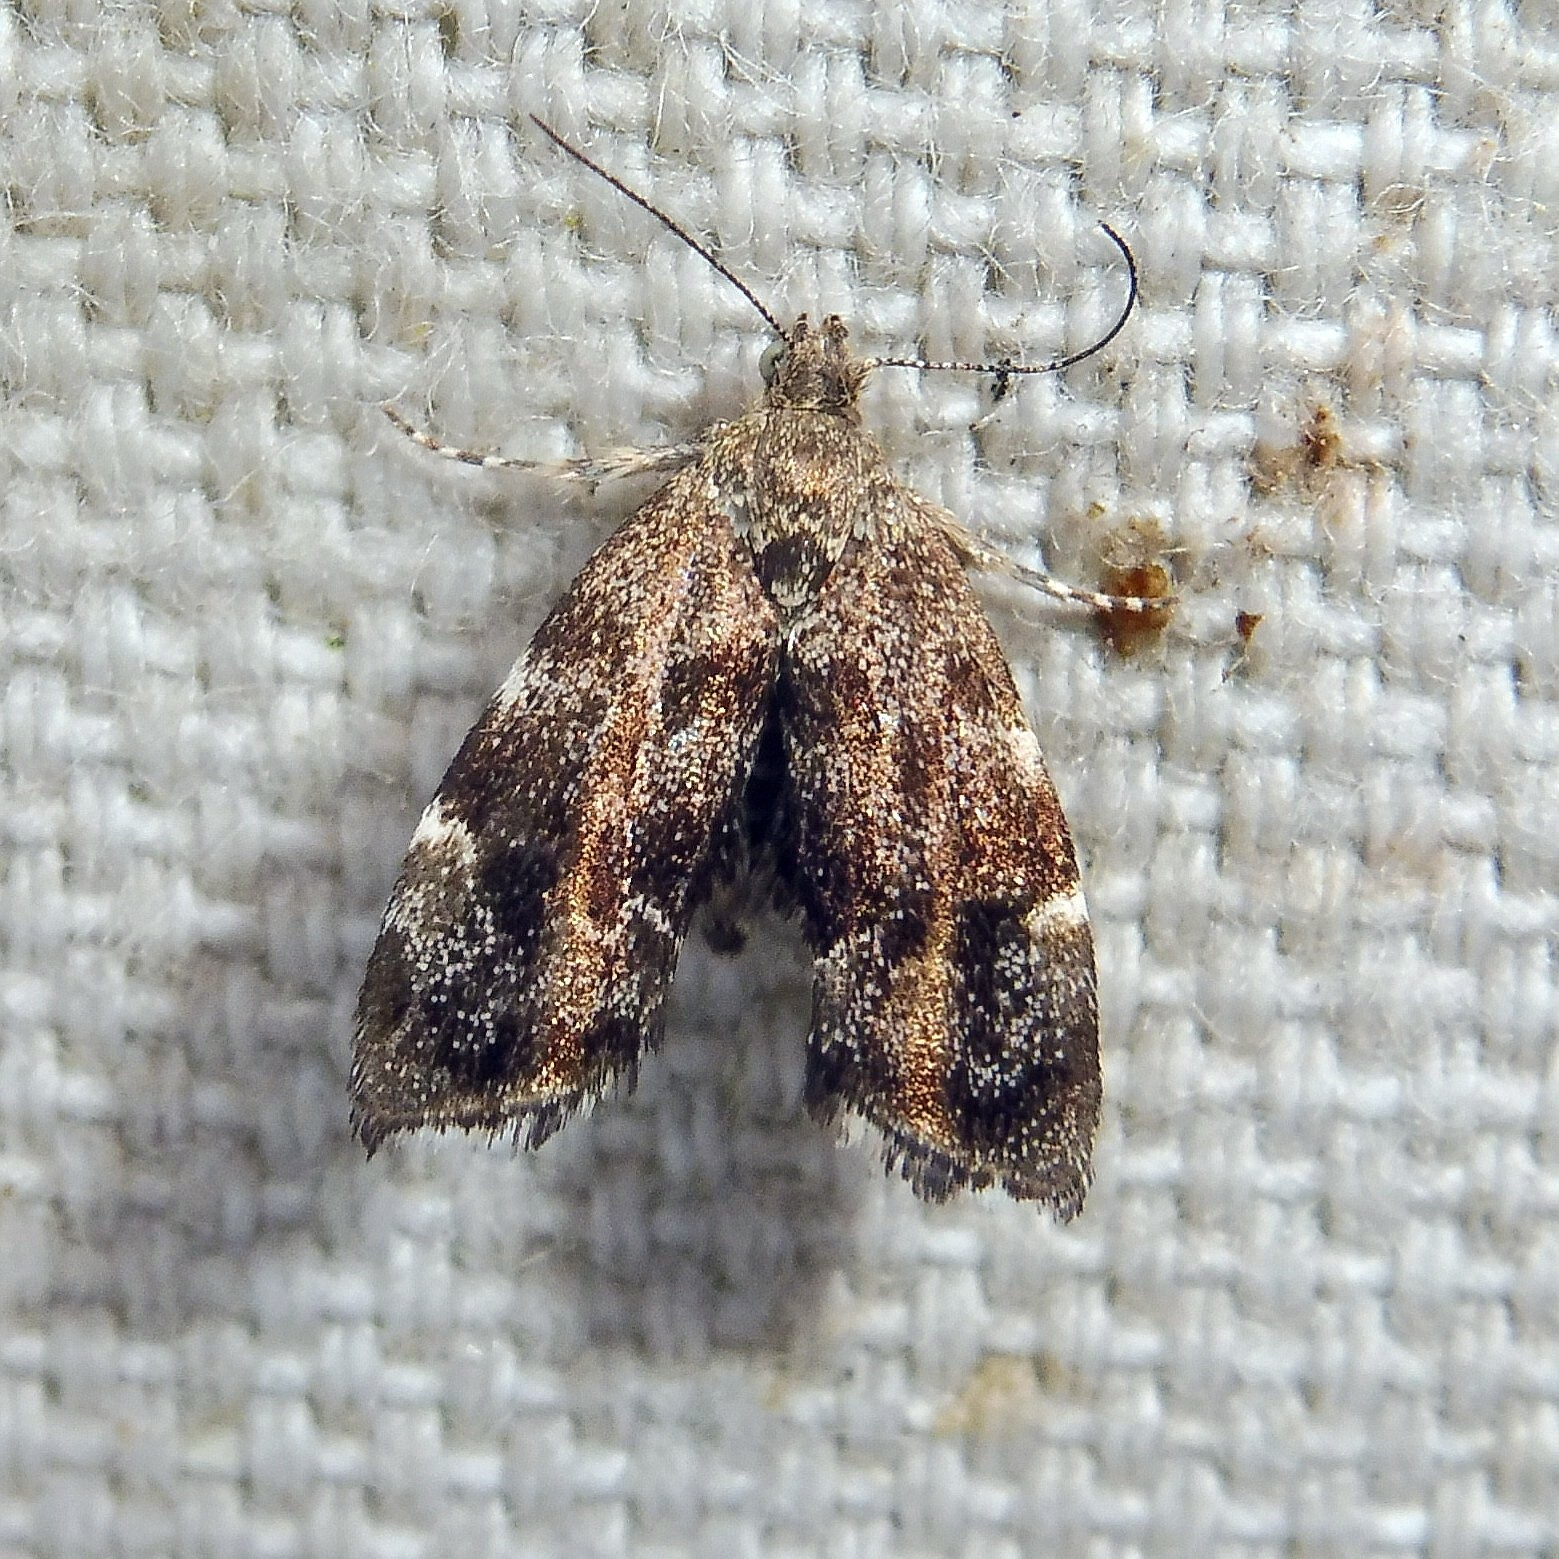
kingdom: Animalia
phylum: Arthropoda
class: Insecta
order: Lepidoptera
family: Choreutidae
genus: Anthophila
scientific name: Anthophila fabriciana
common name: Nettle-tap
